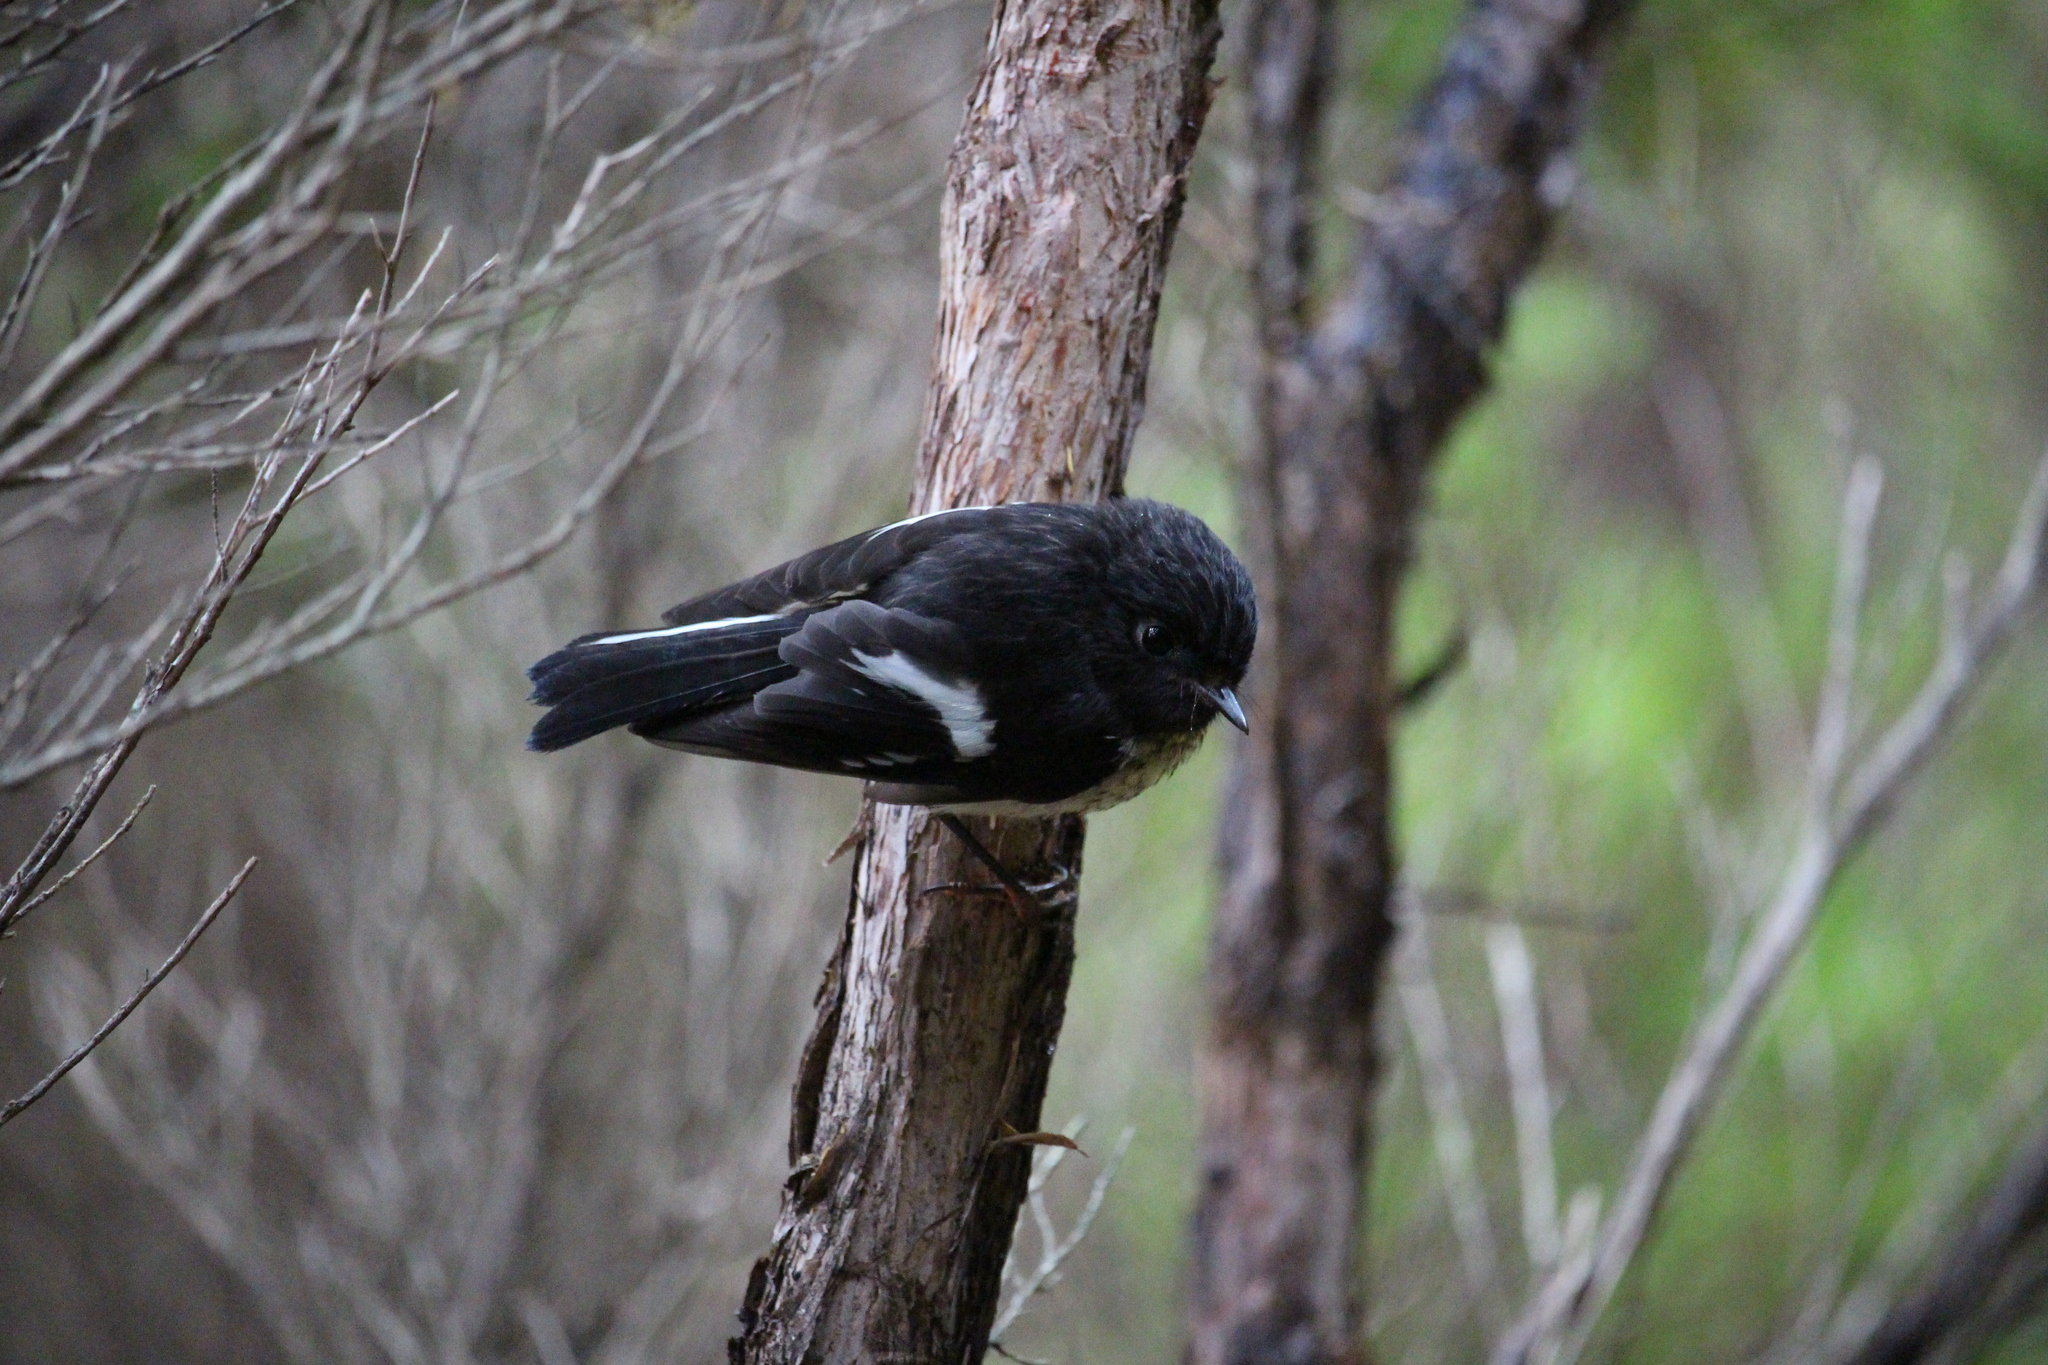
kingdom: Animalia
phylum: Chordata
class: Aves
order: Passeriformes
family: Petroicidae
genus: Petroica
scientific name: Petroica macrocephala
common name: Tomtit
